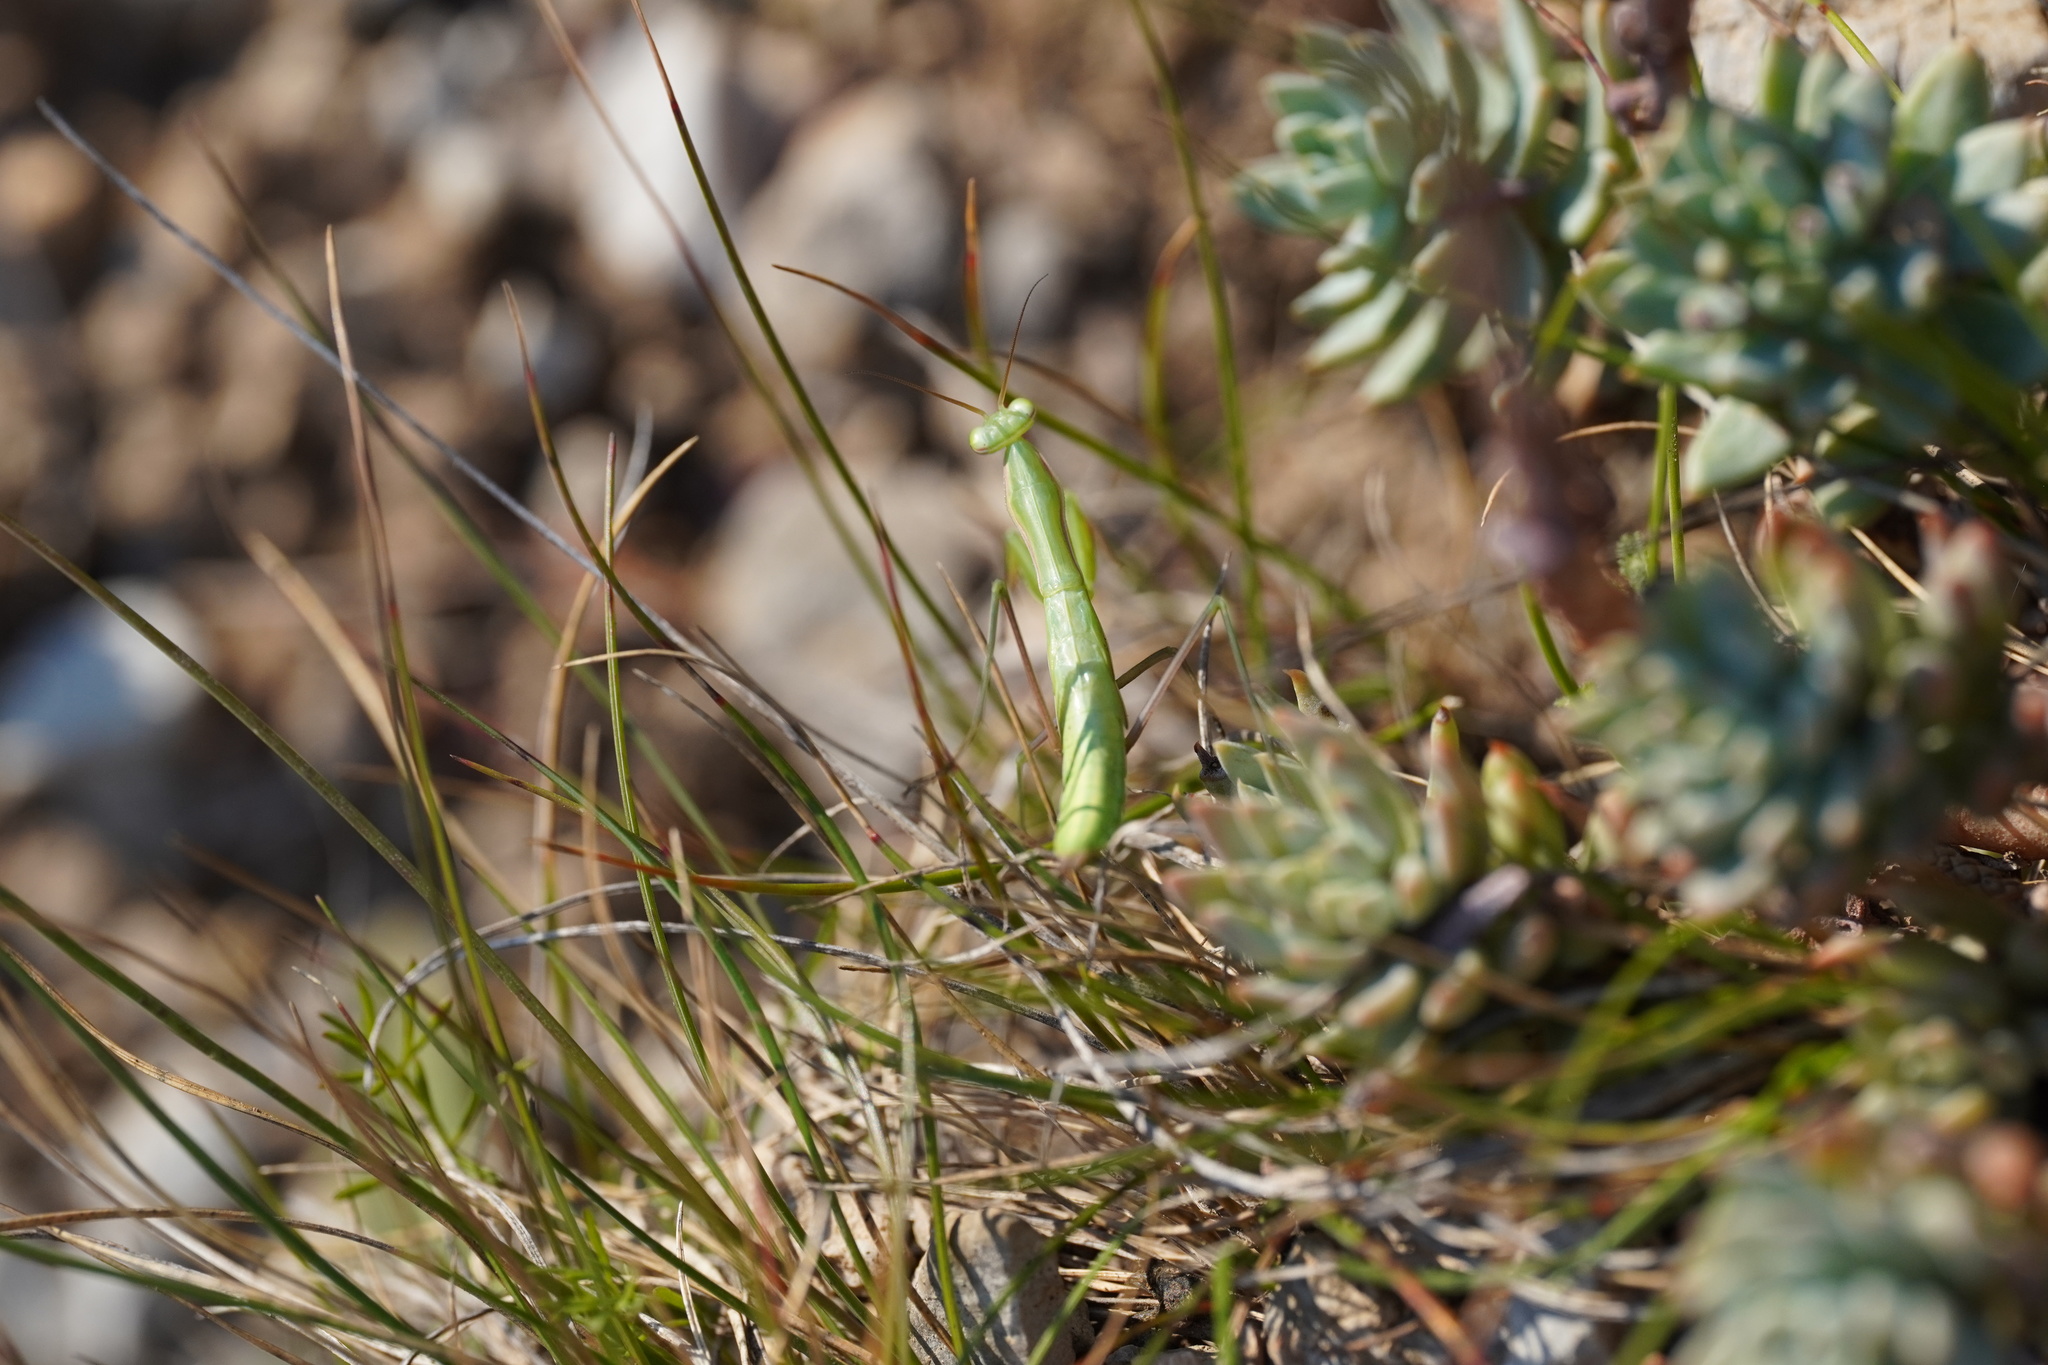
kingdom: Animalia
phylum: Arthropoda
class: Insecta
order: Mantodea
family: Mantidae
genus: Mantis
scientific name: Mantis religiosa
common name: Praying mantis
